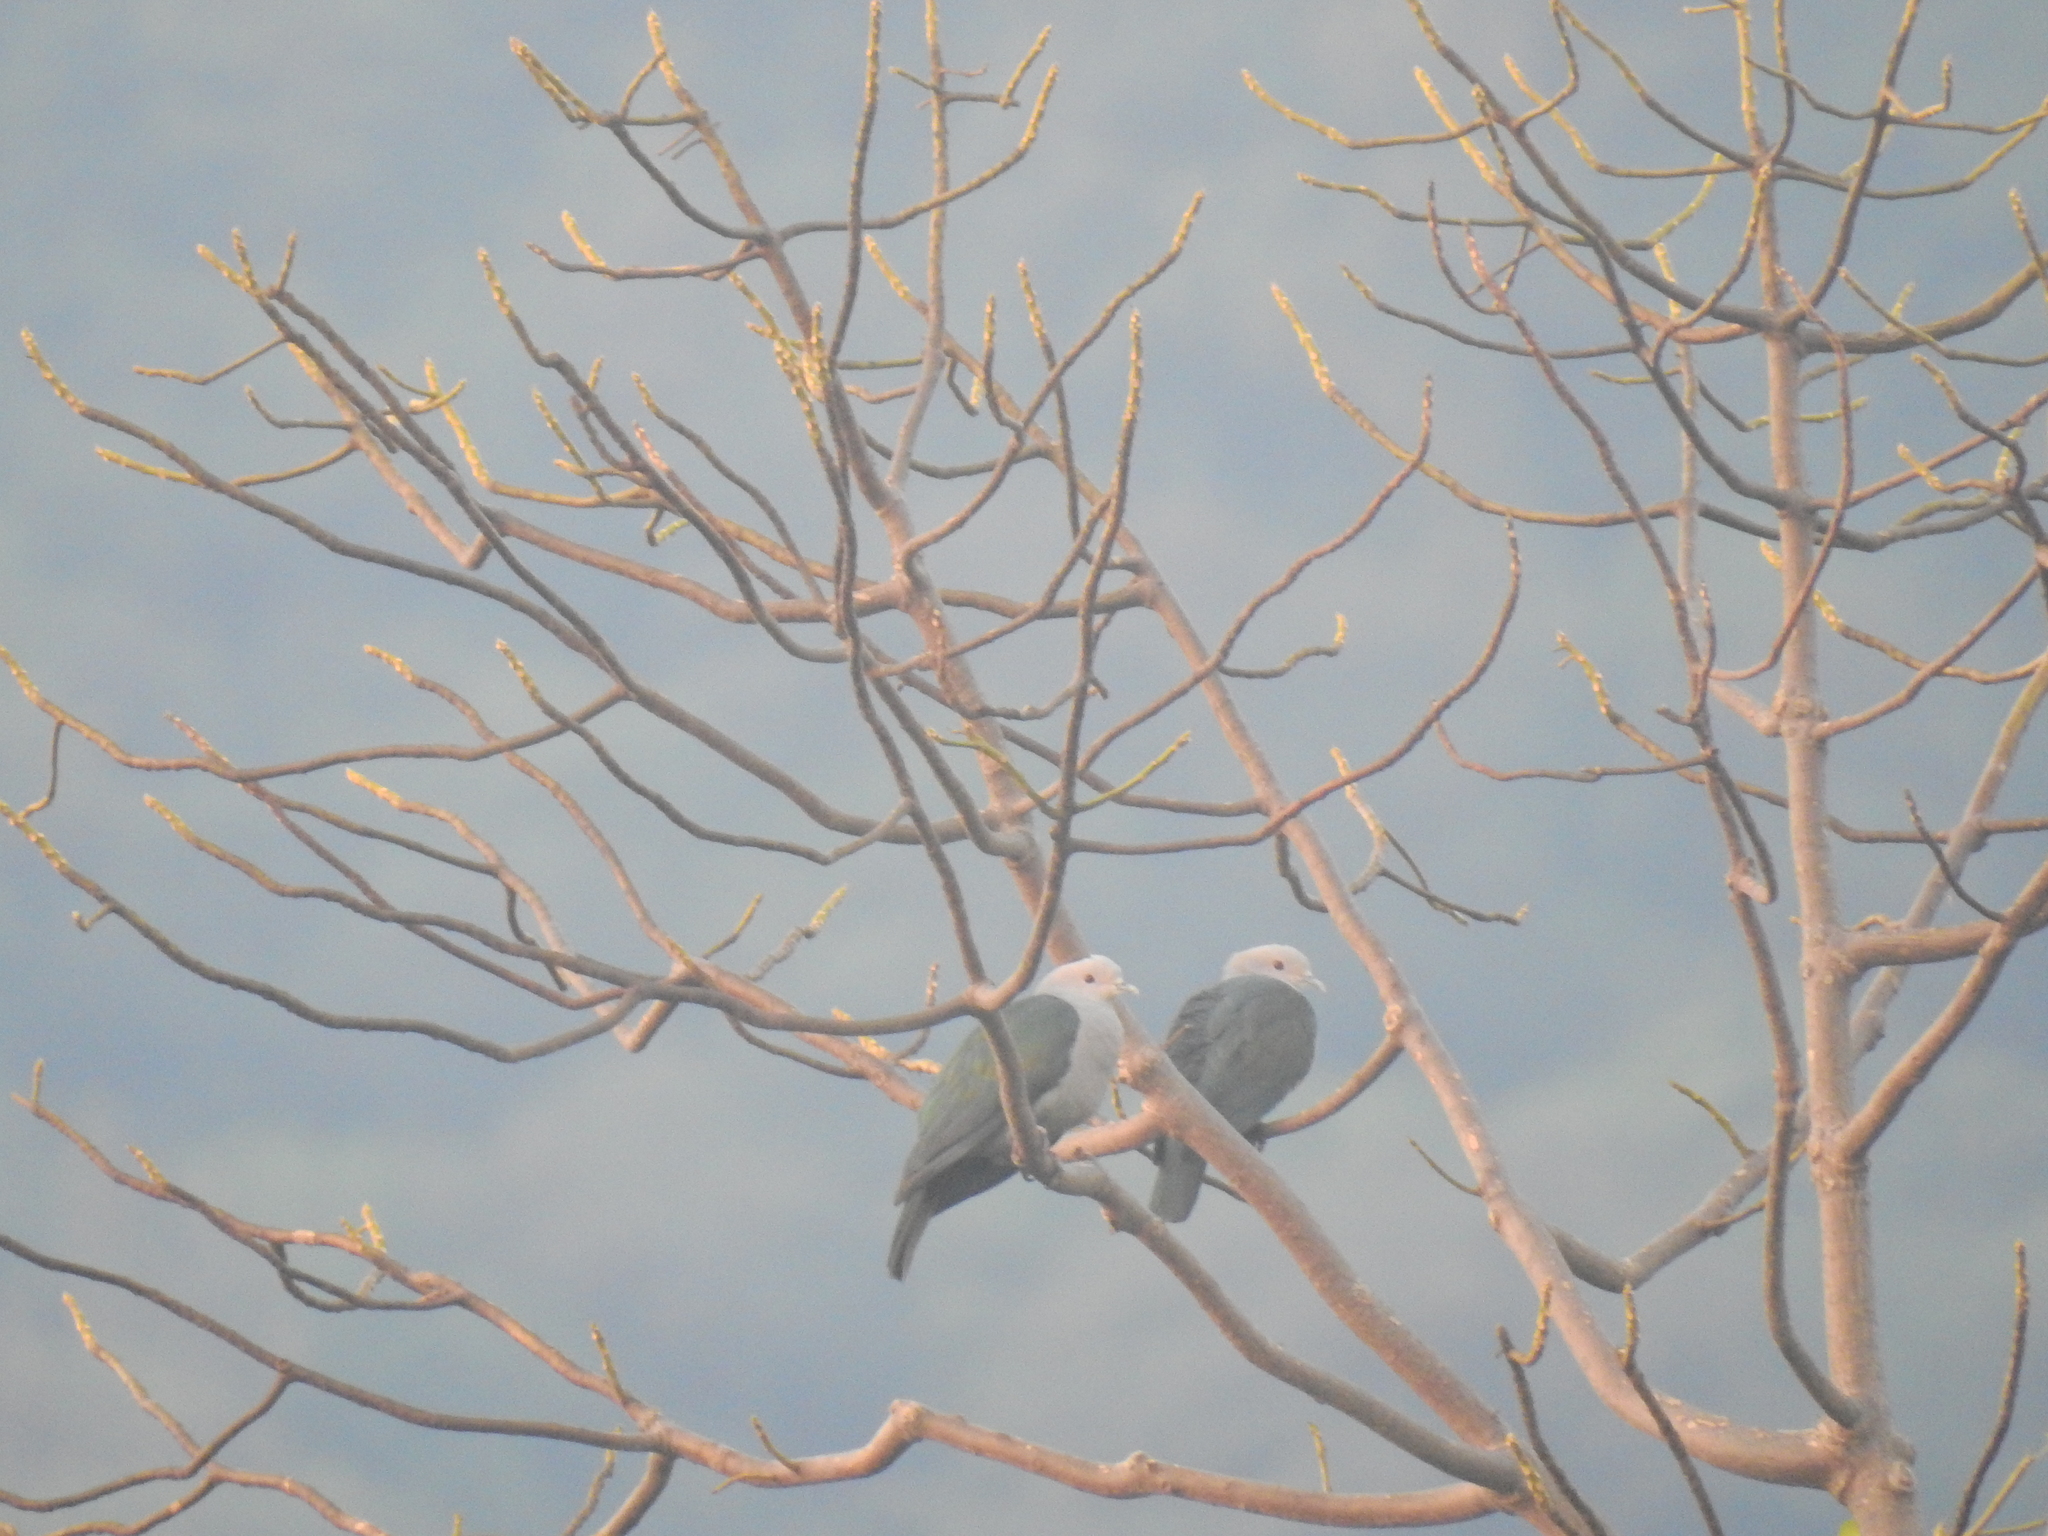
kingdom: Animalia
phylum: Chordata
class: Aves
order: Columbiformes
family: Columbidae
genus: Ducula
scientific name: Ducula aenea
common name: Green imperial pigeon
